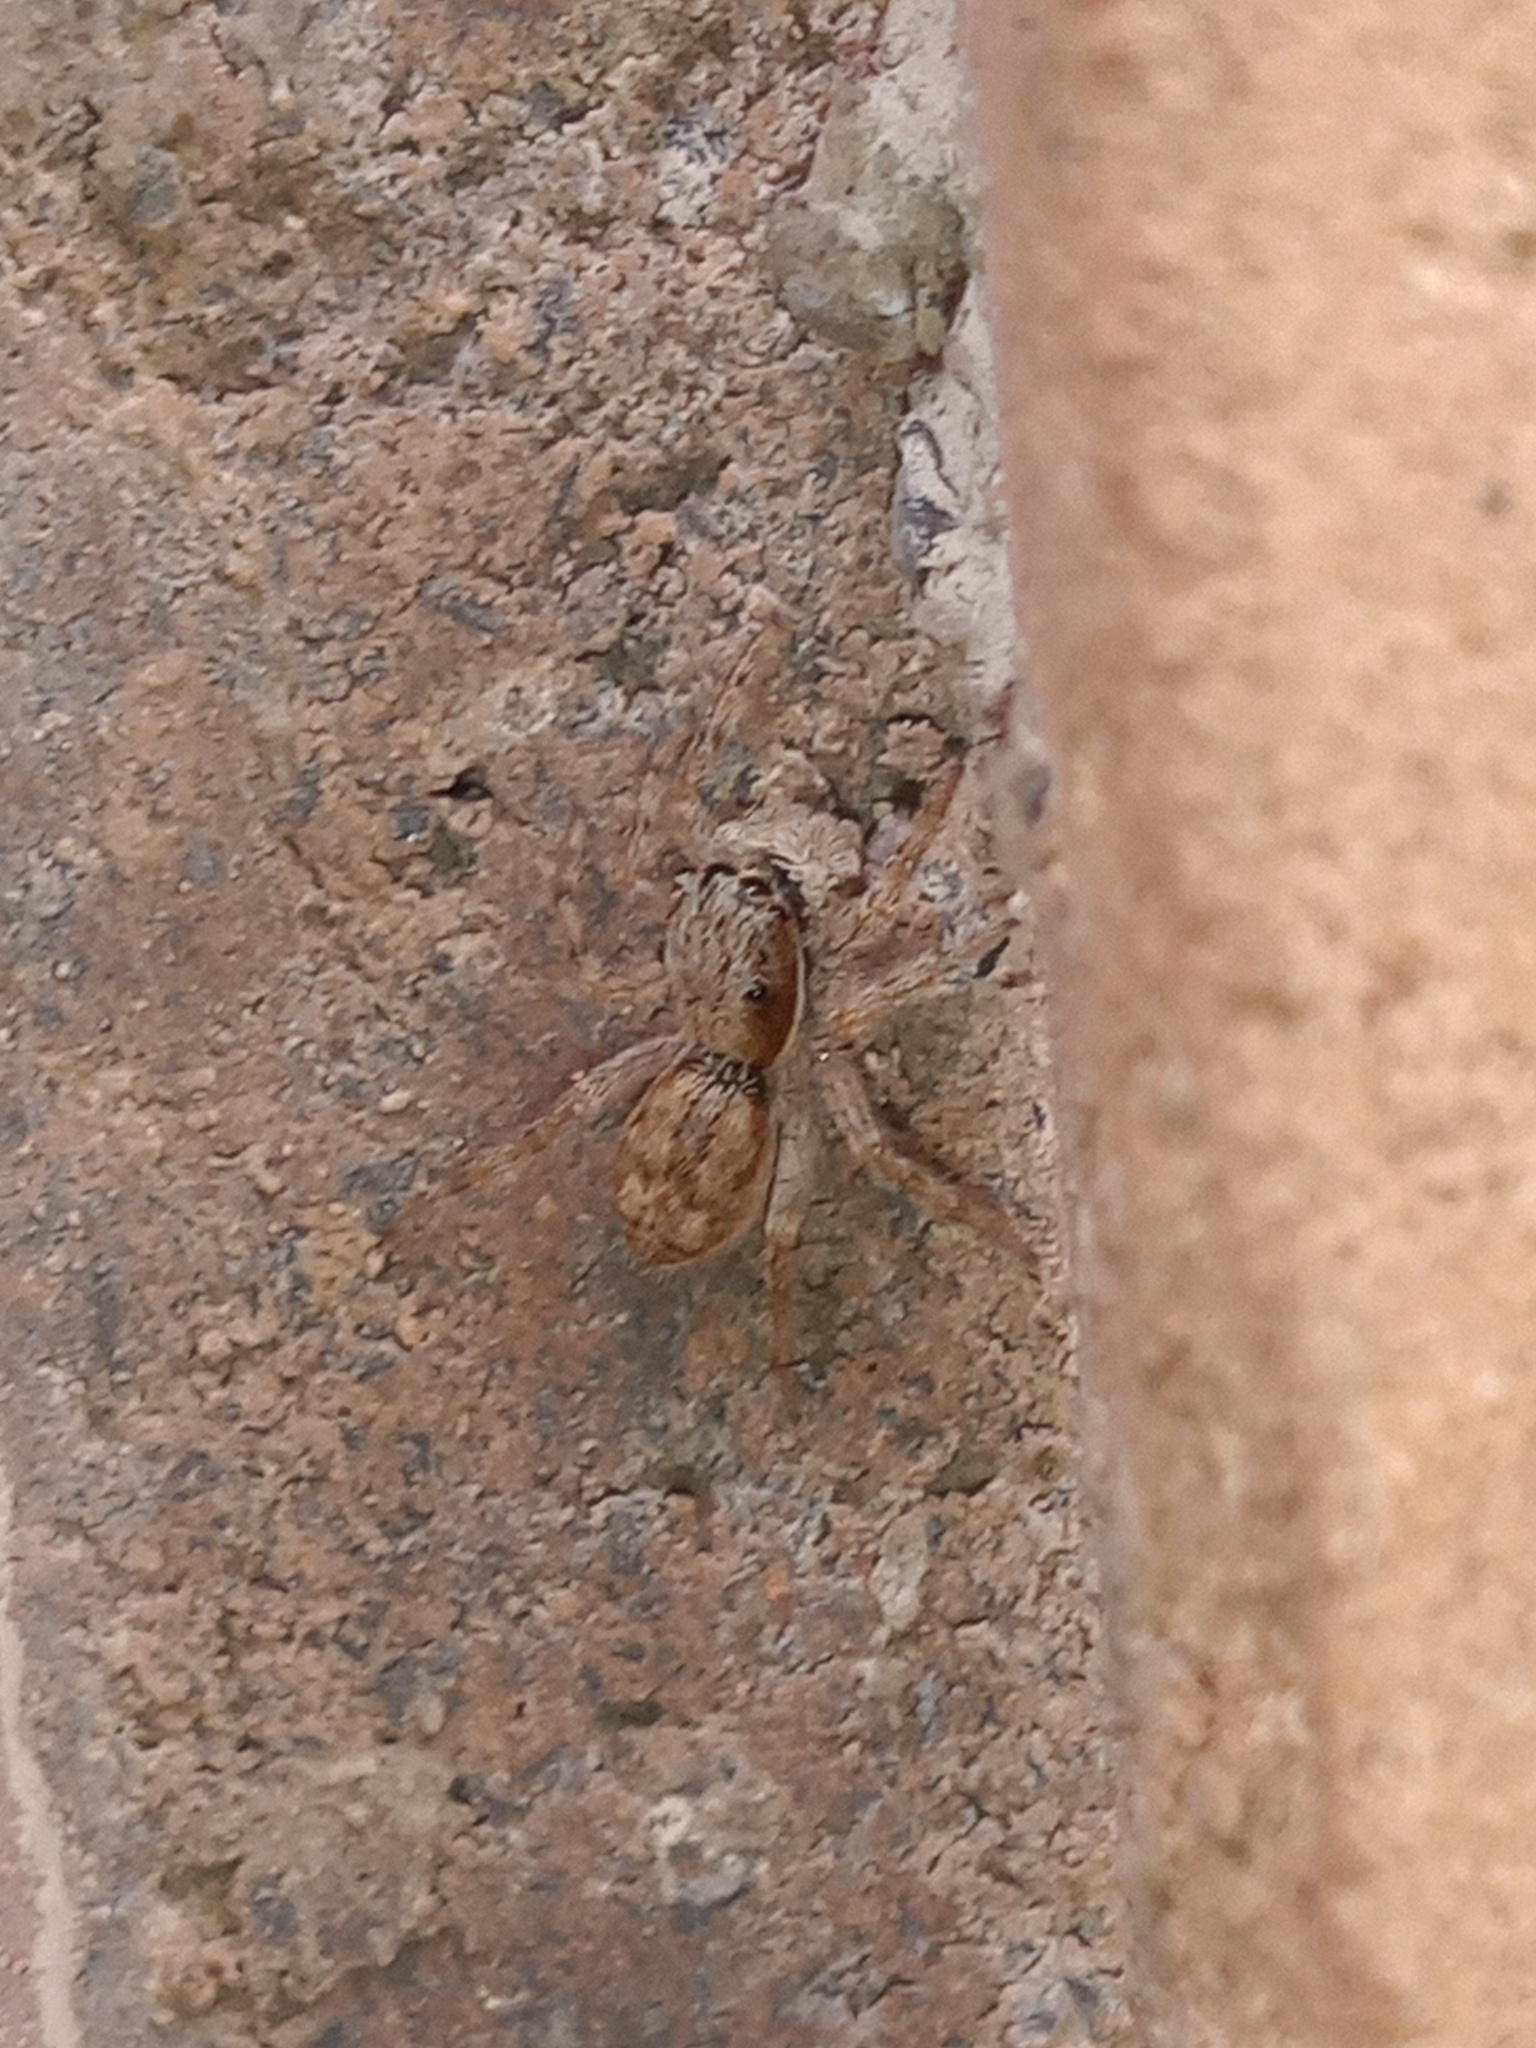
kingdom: Animalia
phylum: Arthropoda
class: Arachnida
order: Araneae
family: Salticidae
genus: Menemerus
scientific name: Menemerus bivittatus
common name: Gray wall jumper
